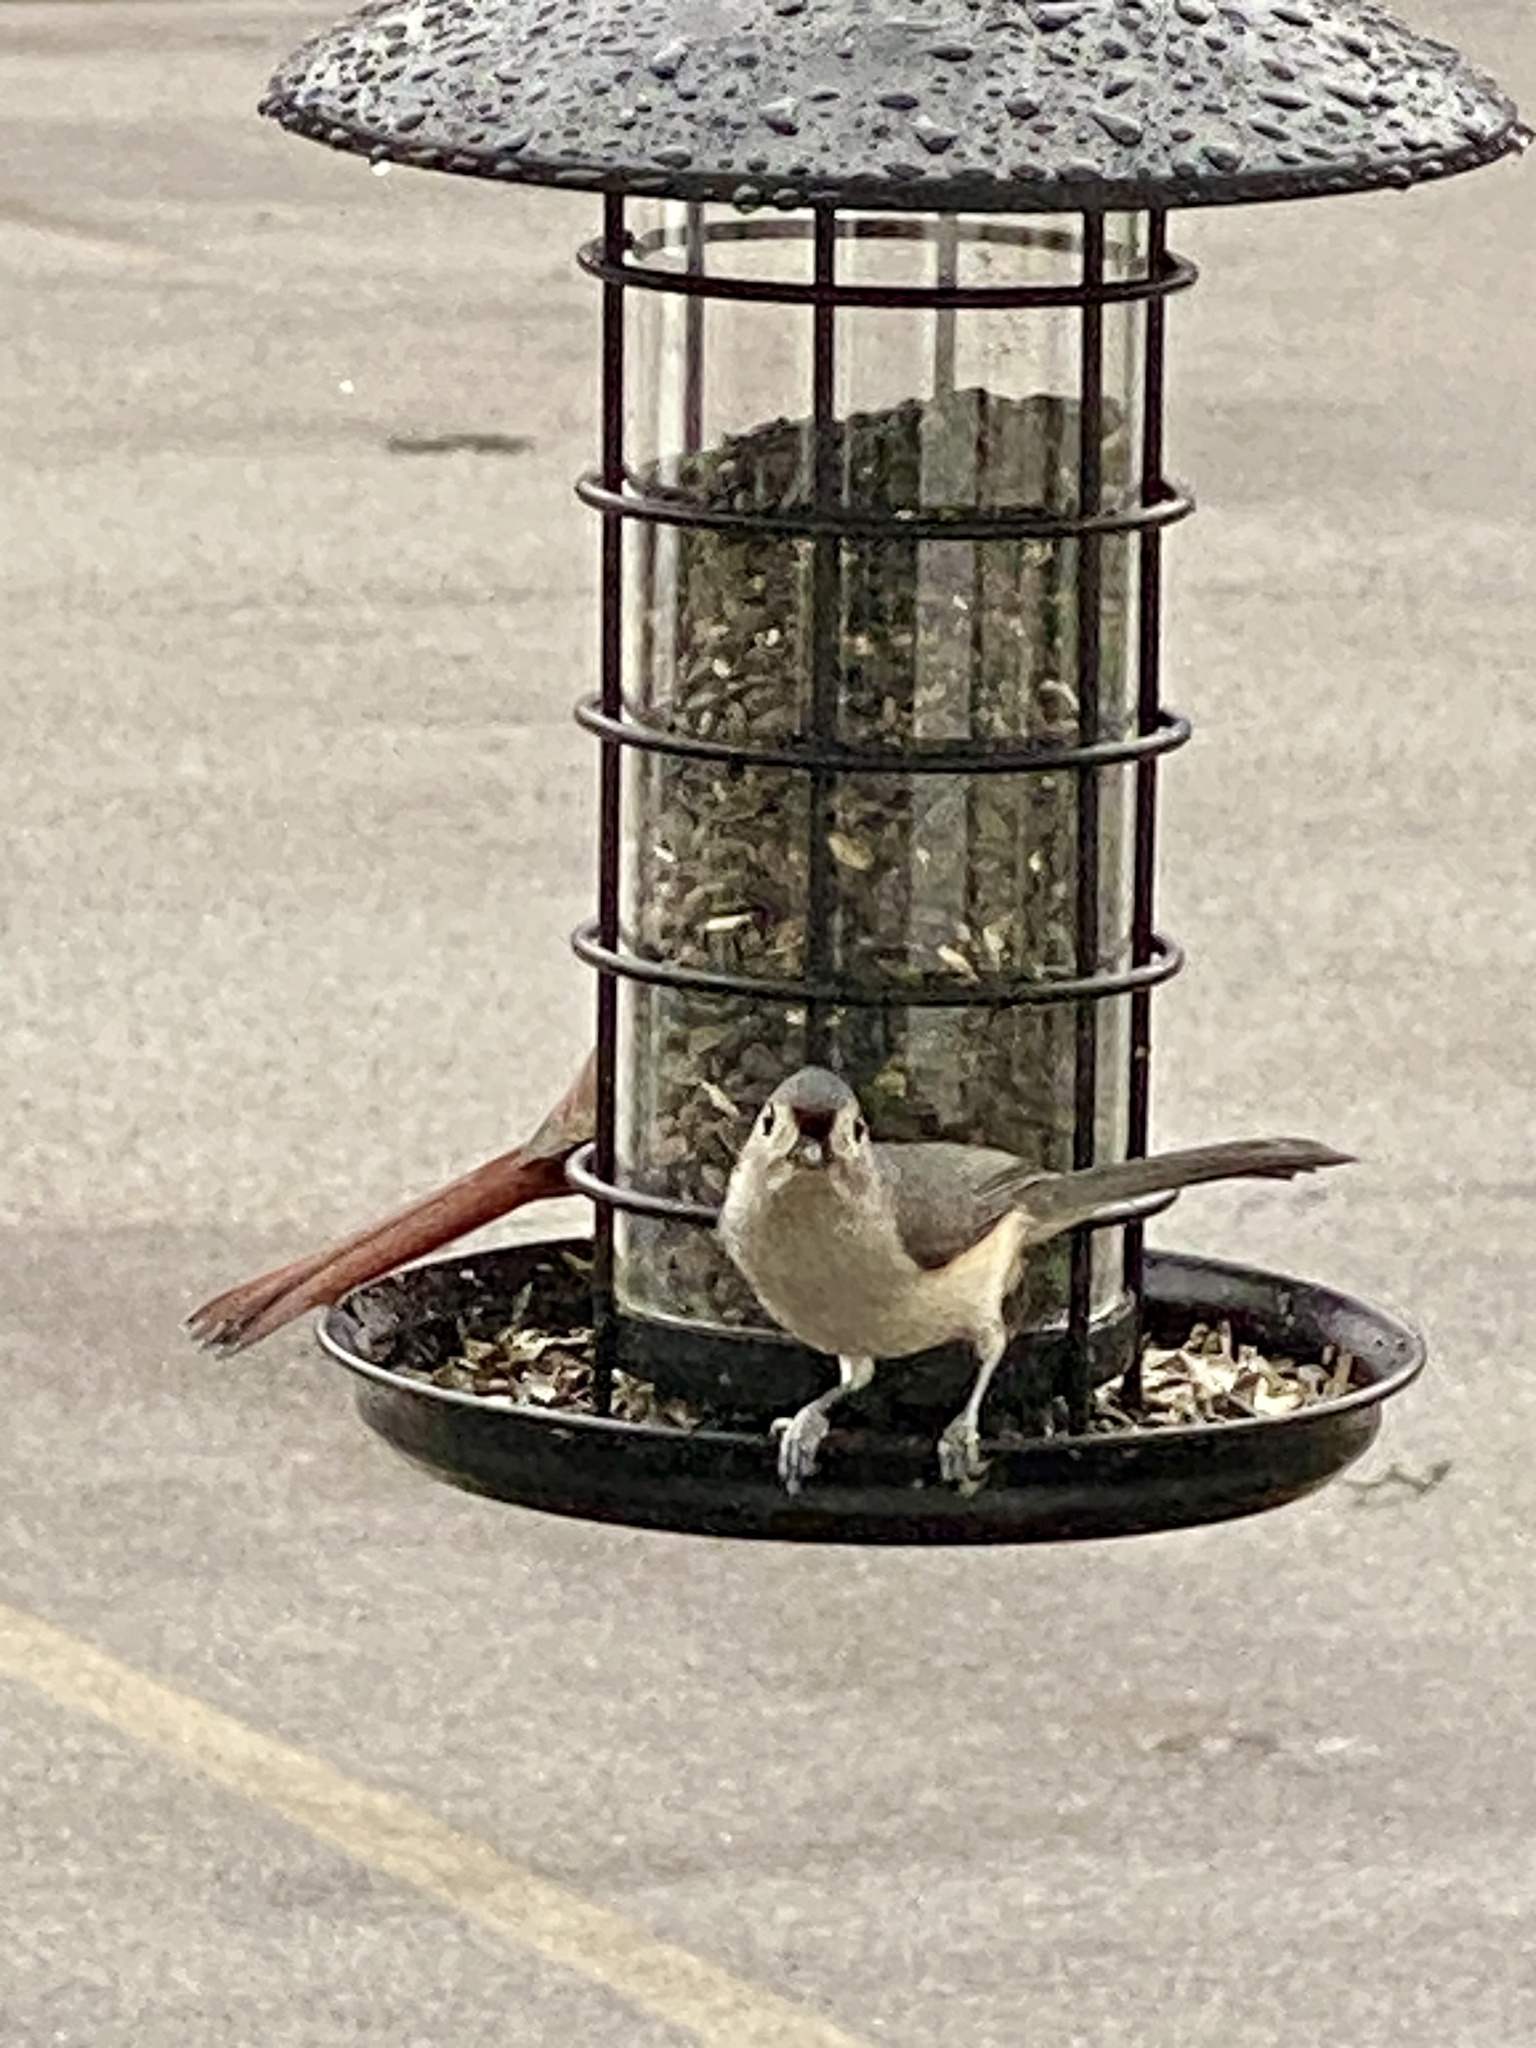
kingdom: Animalia
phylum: Chordata
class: Aves
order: Passeriformes
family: Paridae
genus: Baeolophus
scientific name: Baeolophus bicolor
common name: Tufted titmouse
